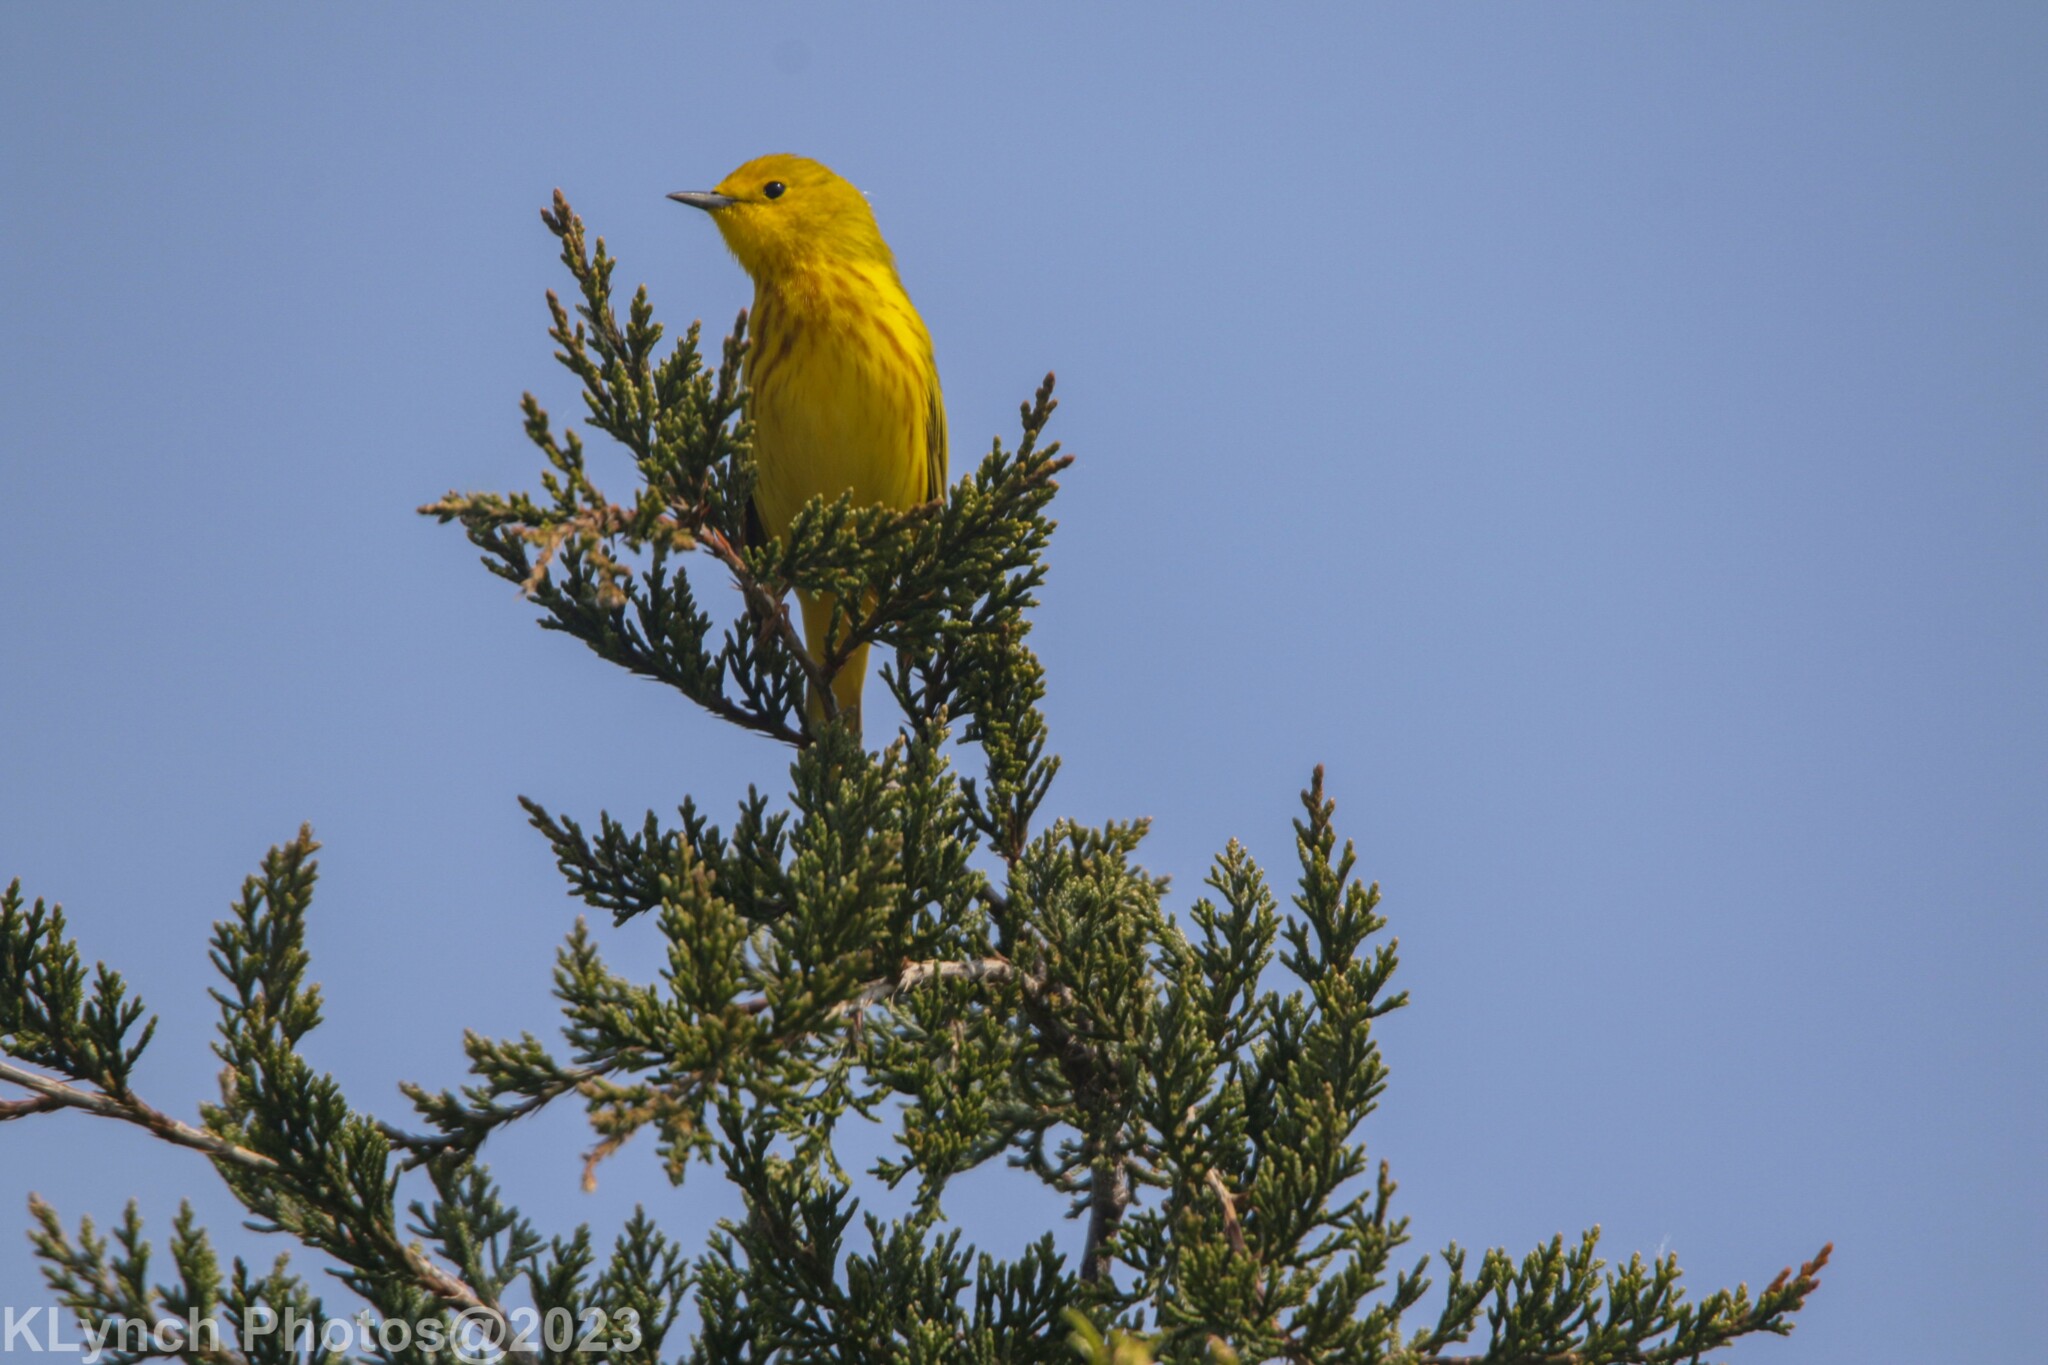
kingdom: Animalia
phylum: Chordata
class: Aves
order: Passeriformes
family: Parulidae
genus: Setophaga
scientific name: Setophaga petechia
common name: Yellow warbler
